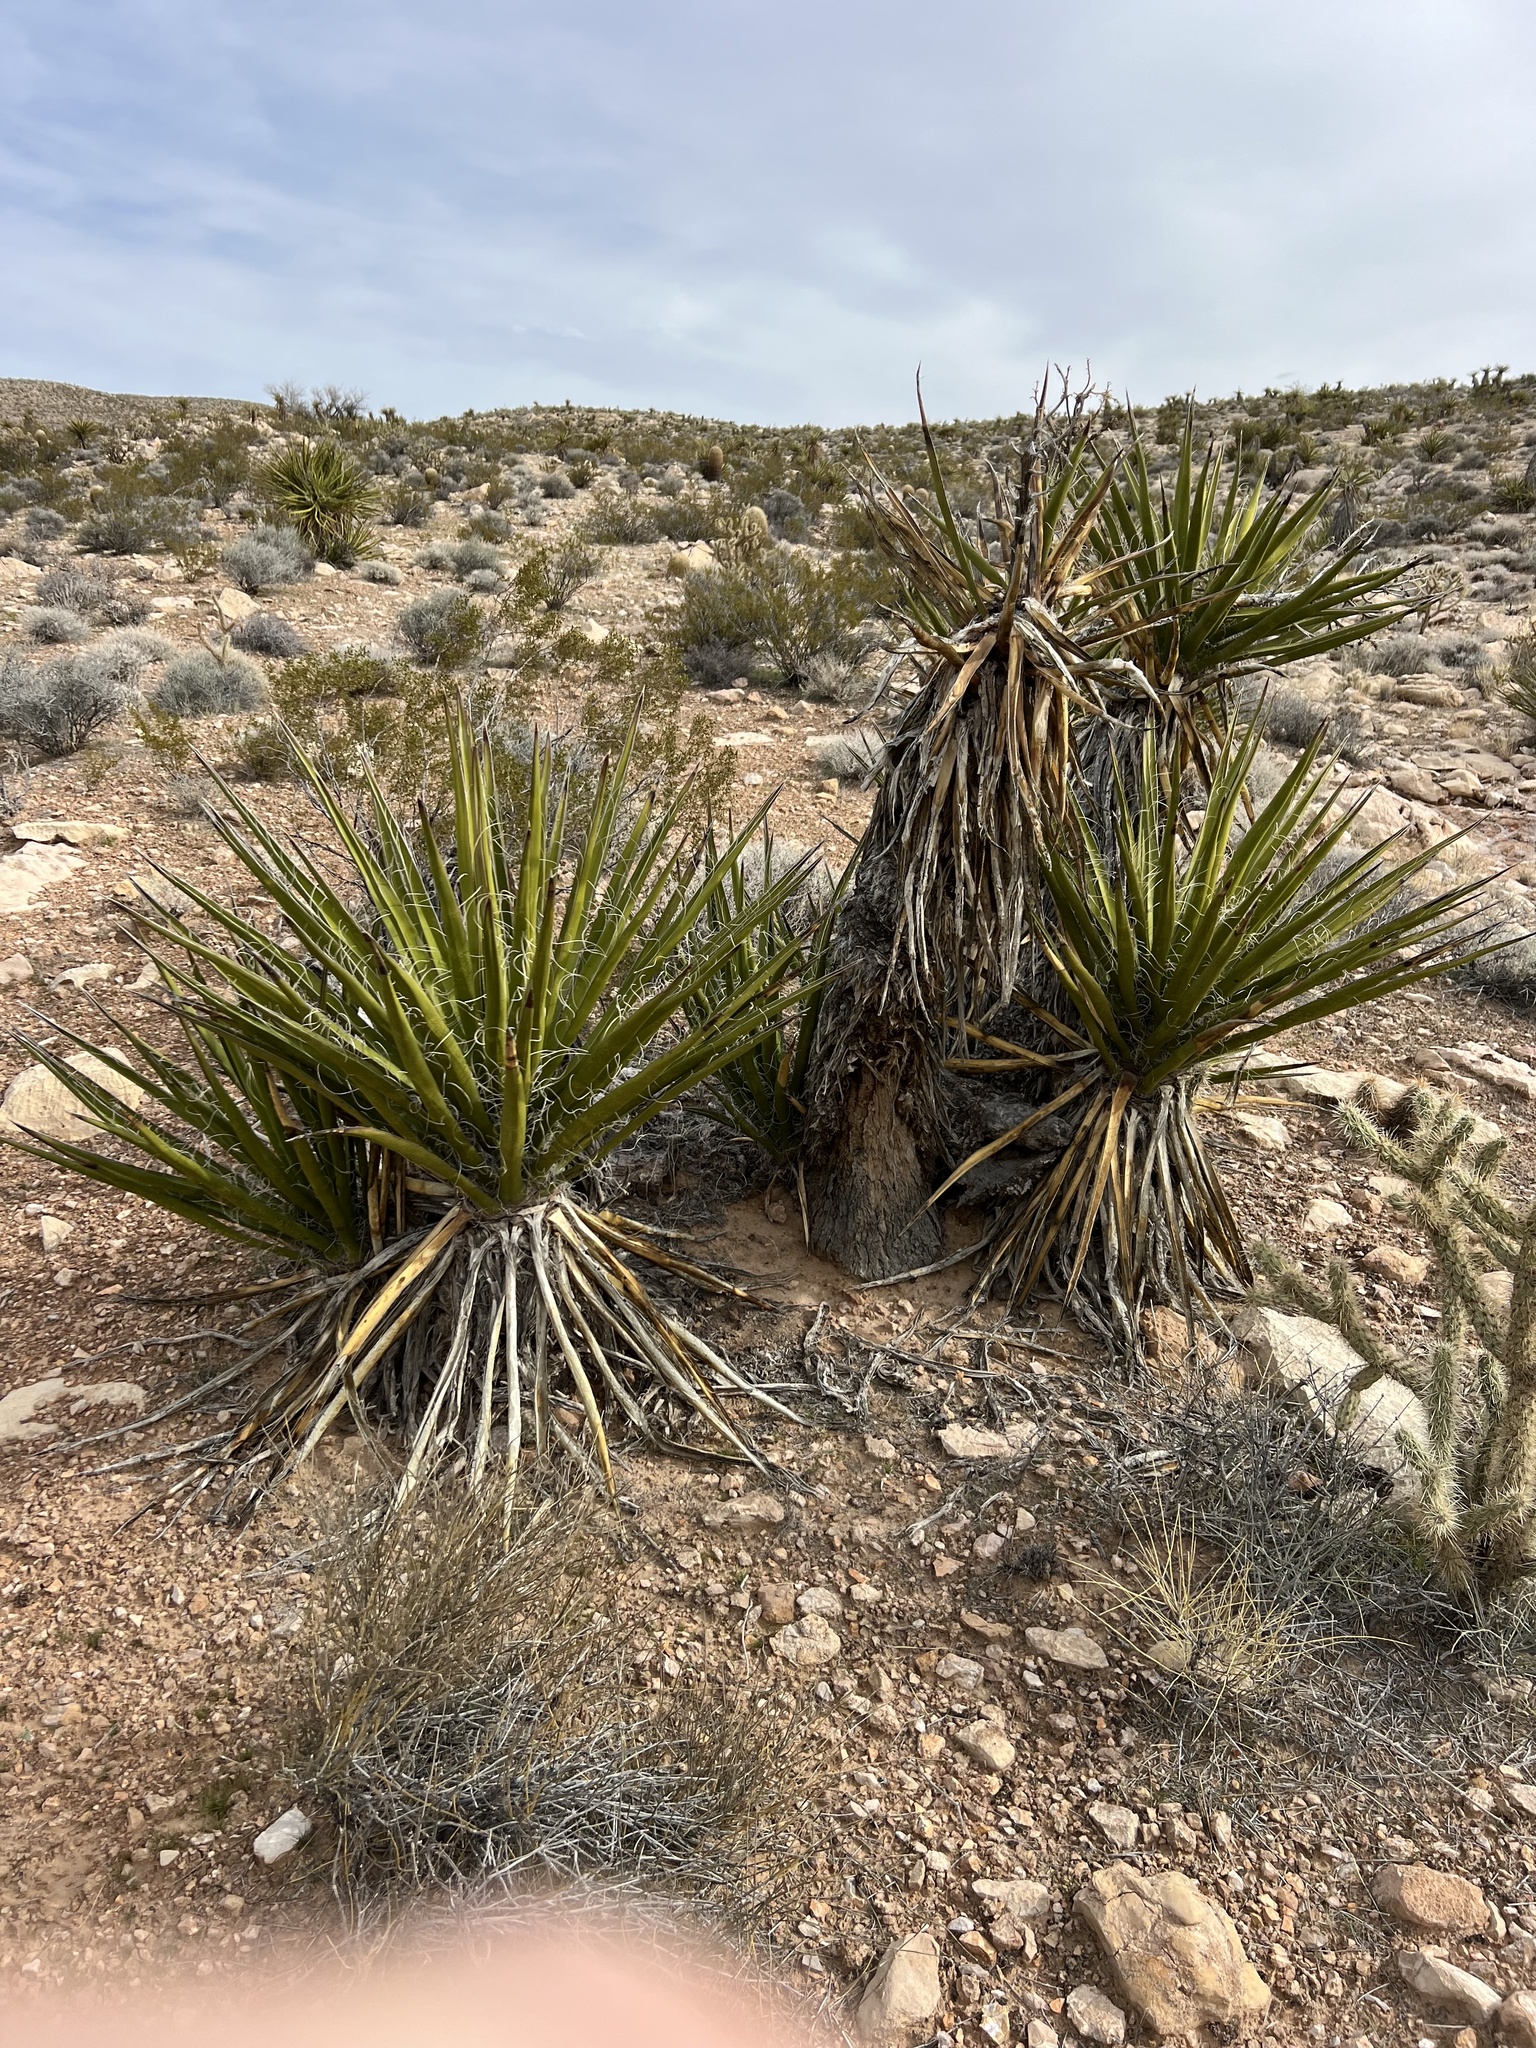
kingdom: Plantae
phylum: Tracheophyta
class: Liliopsida
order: Asparagales
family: Asparagaceae
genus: Yucca
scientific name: Yucca schidigera
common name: Mojave yucca
